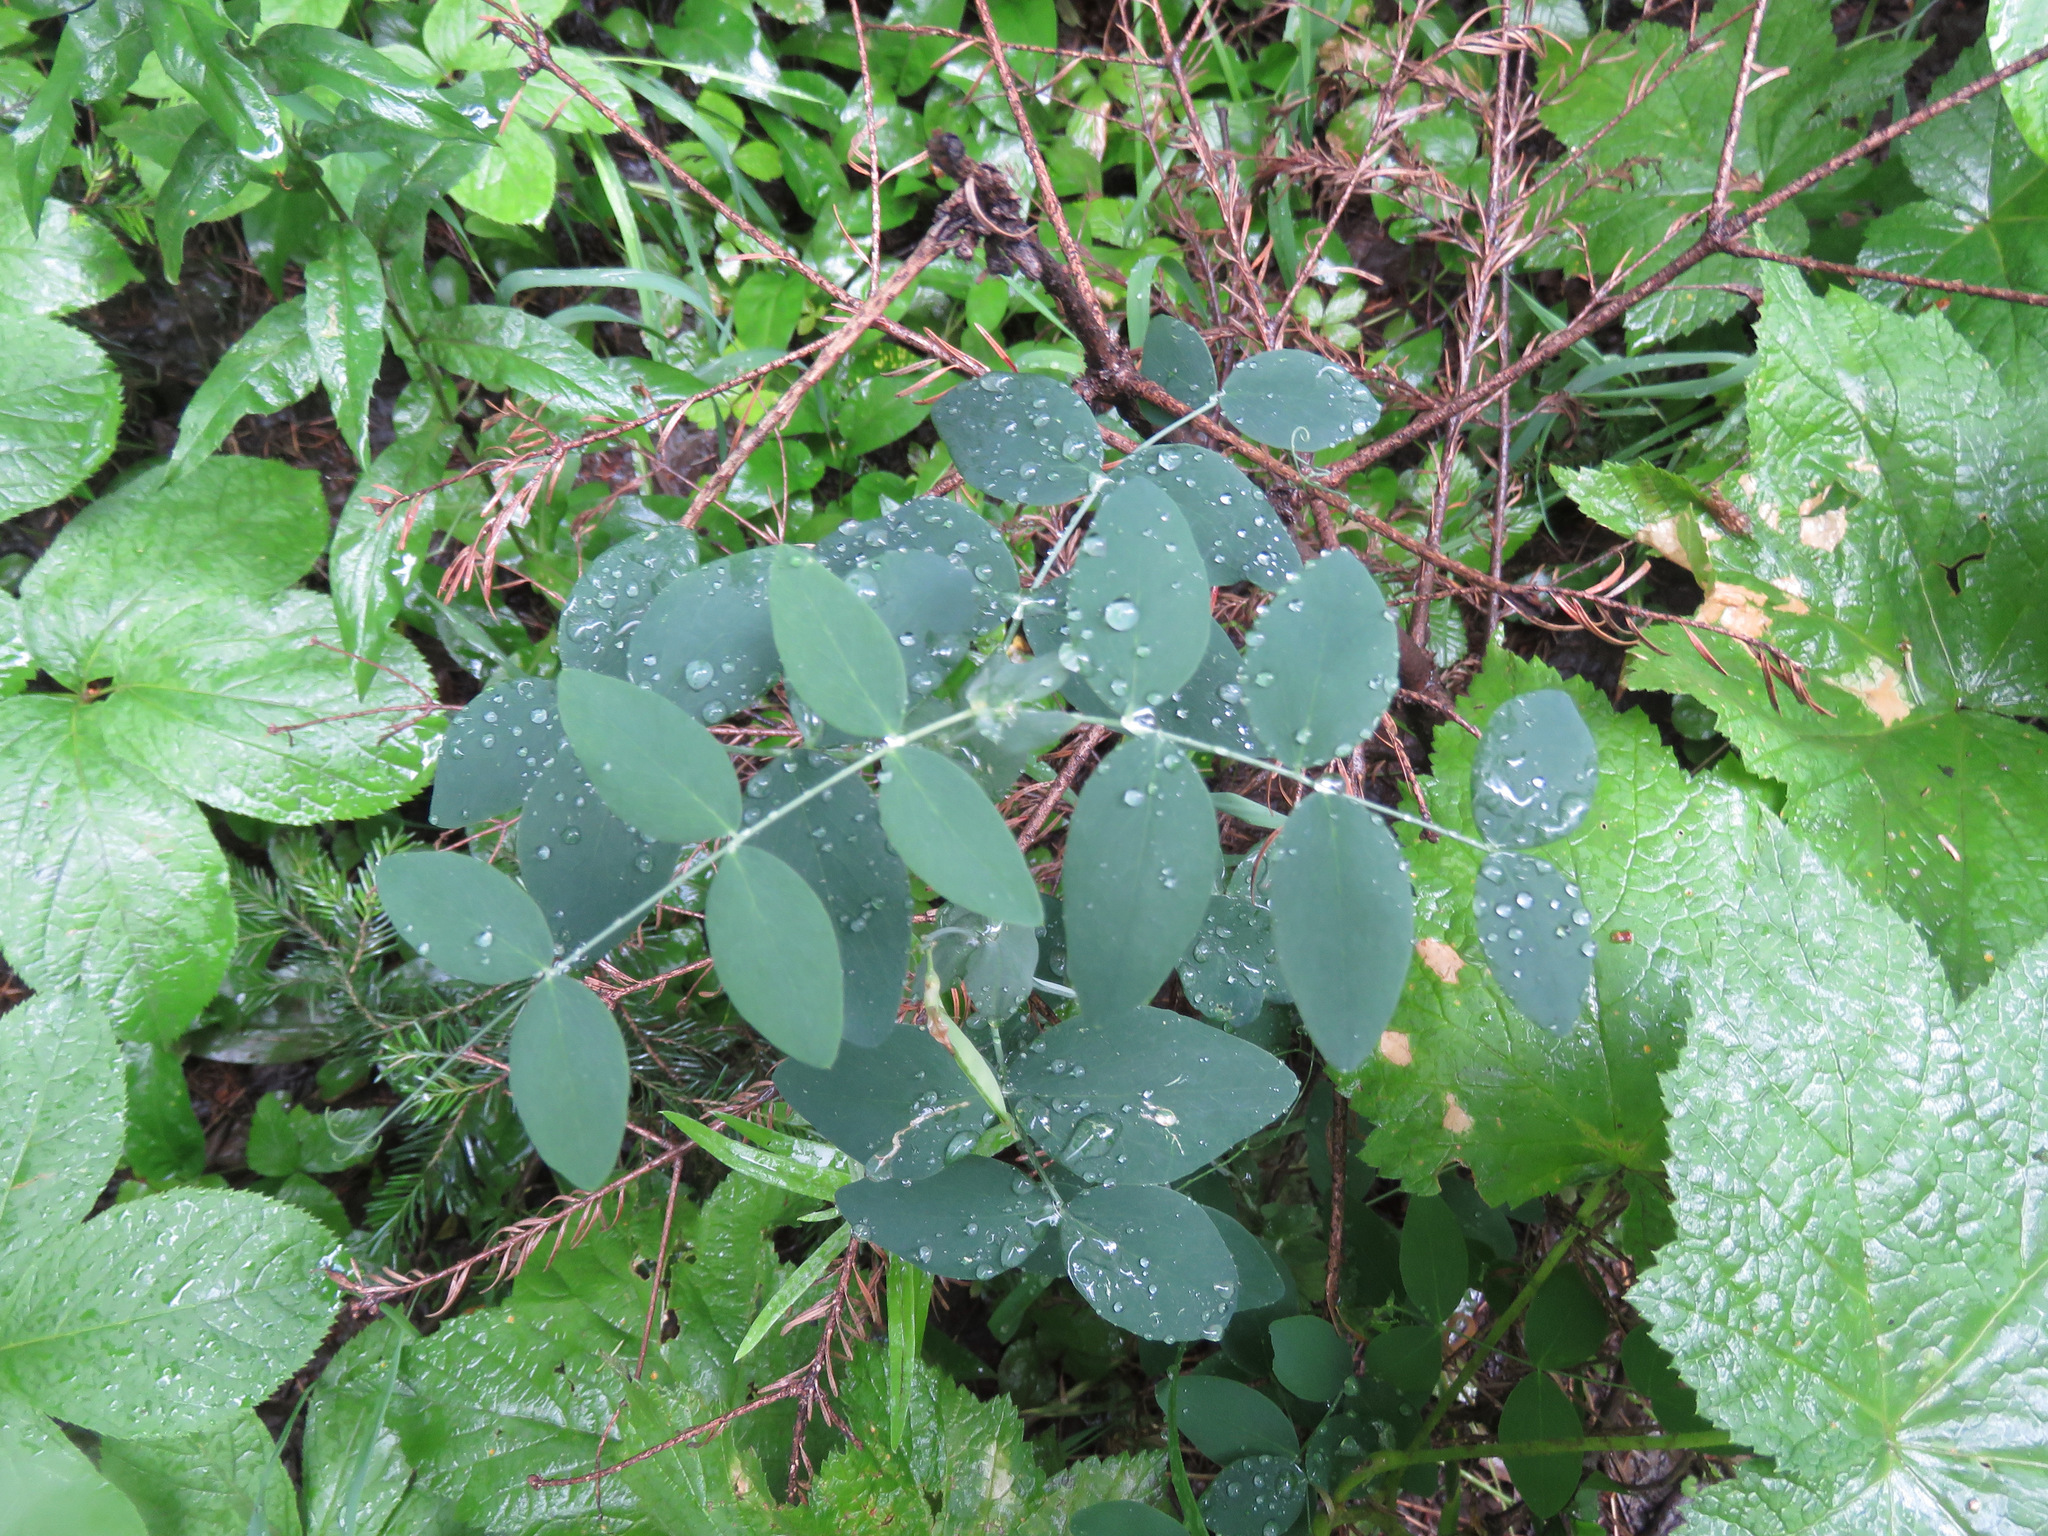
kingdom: Plantae
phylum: Tracheophyta
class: Magnoliopsida
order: Fabales
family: Fabaceae
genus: Lathyrus
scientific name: Lathyrus ochroleucus
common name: Pale vetchling
